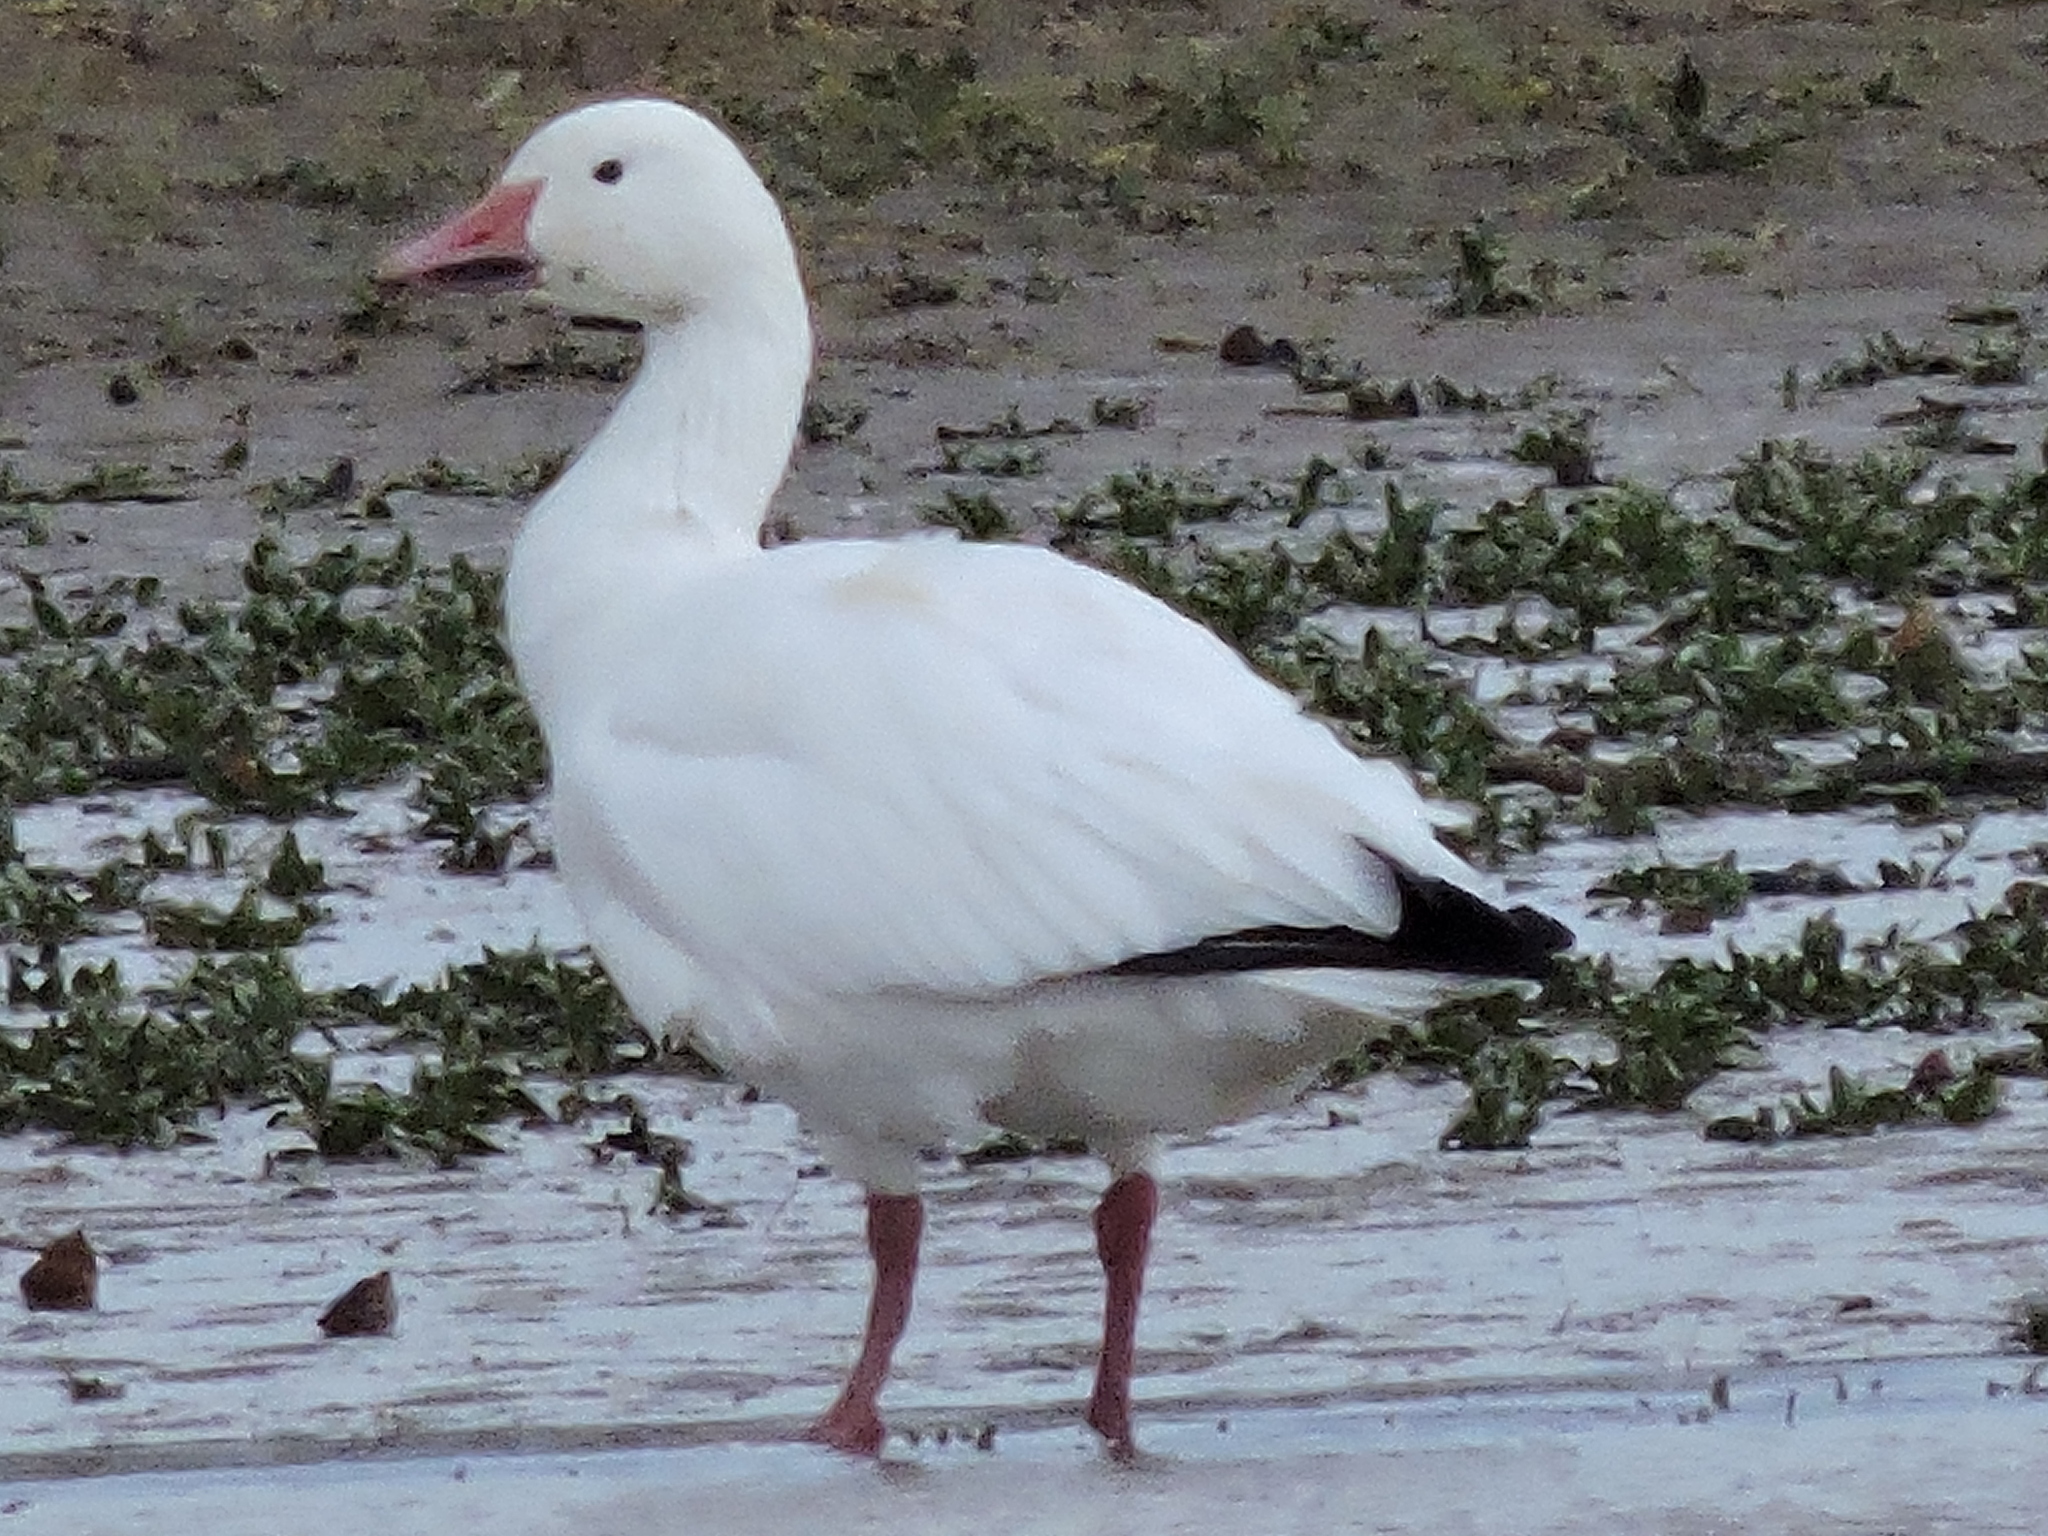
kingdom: Animalia
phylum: Chordata
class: Aves
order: Anseriformes
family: Anatidae
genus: Anser
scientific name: Anser caerulescens
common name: Snow goose
